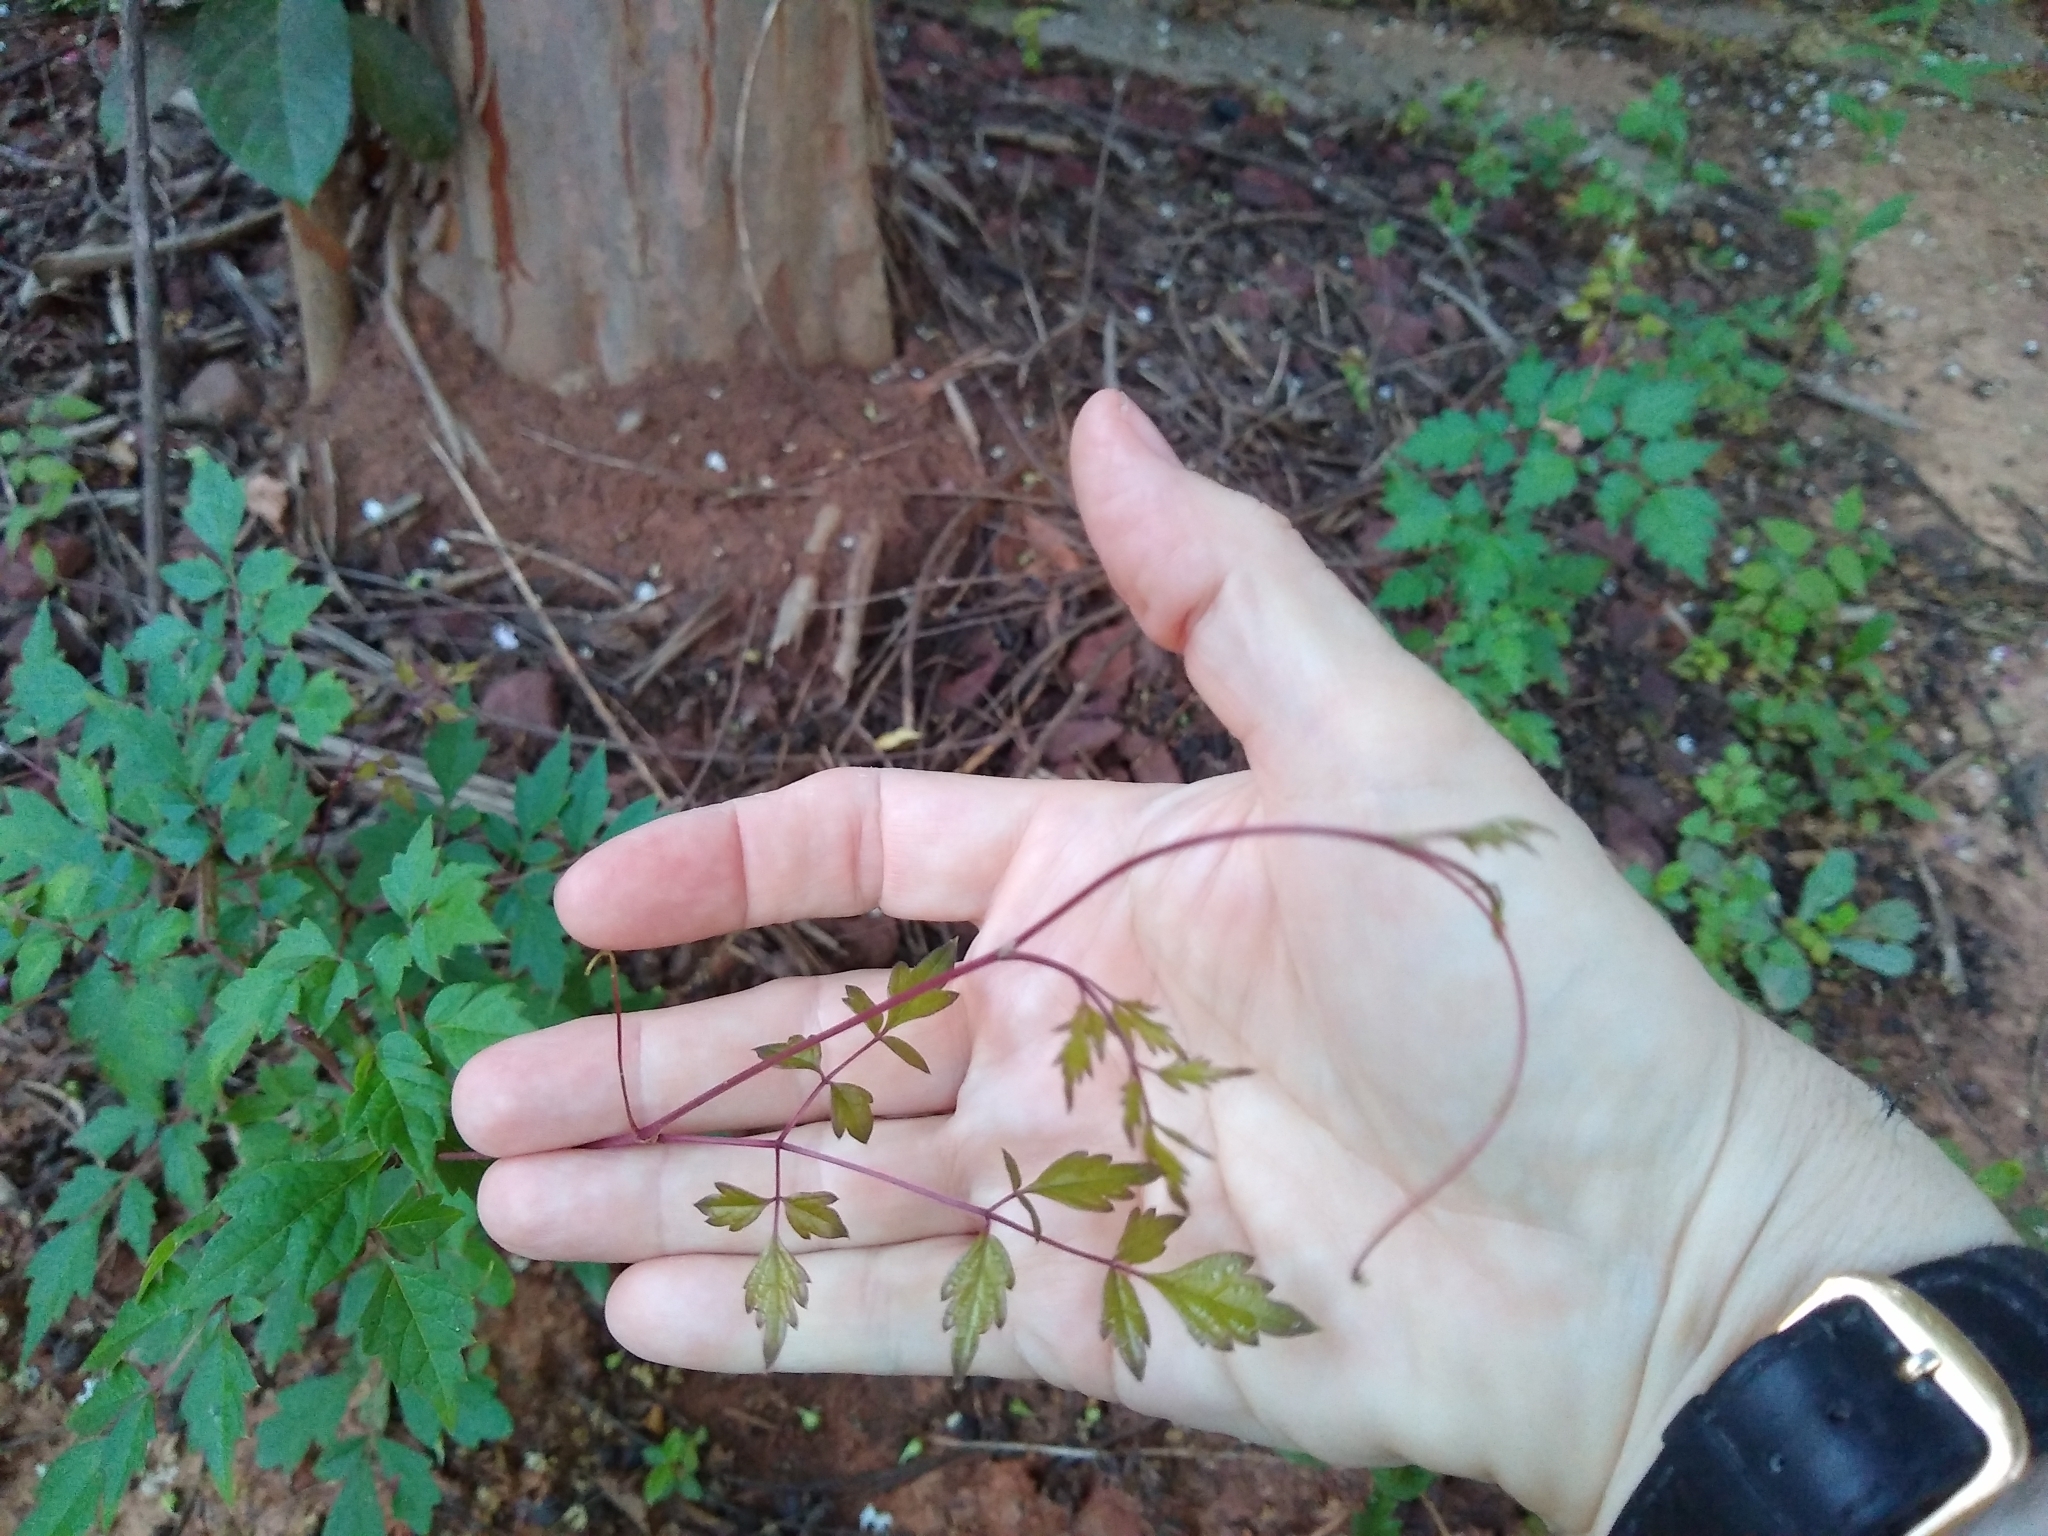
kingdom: Plantae
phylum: Tracheophyta
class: Magnoliopsida
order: Vitales
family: Vitaceae
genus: Nekemias
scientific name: Nekemias arborea
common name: Peppervine
